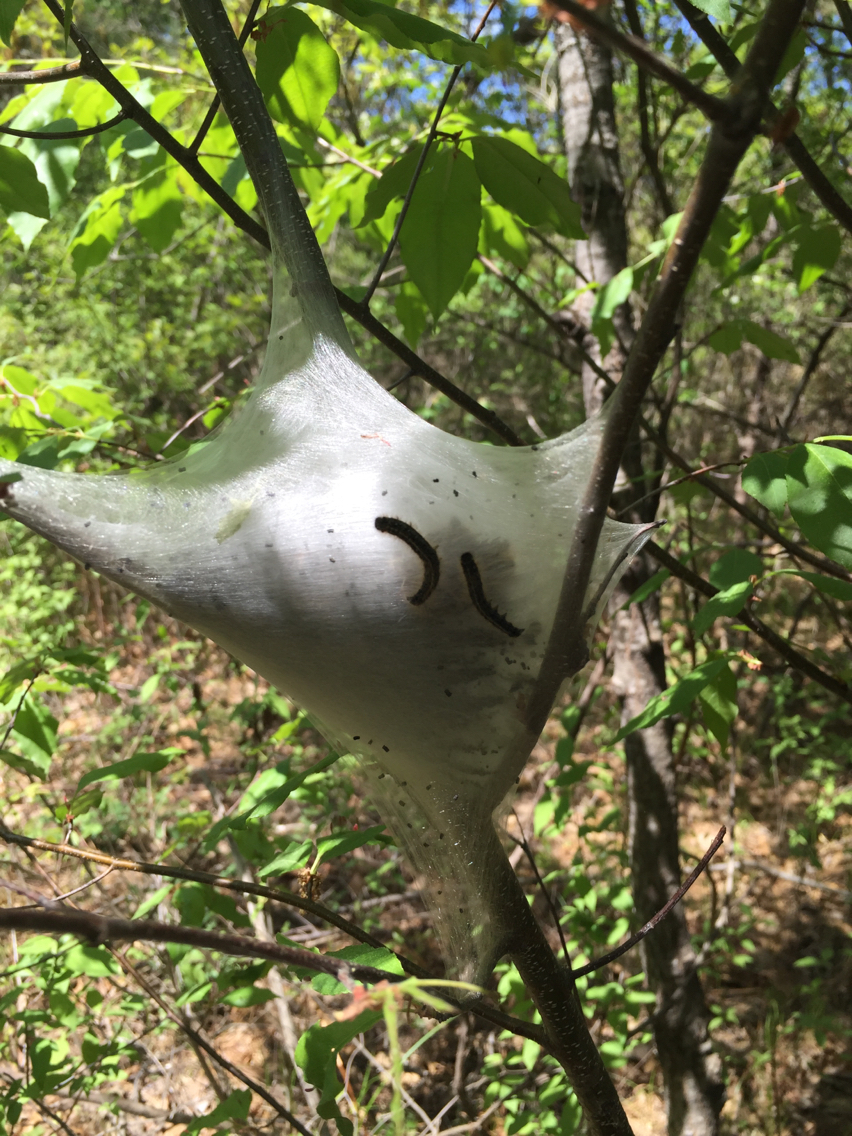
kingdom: Animalia
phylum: Arthropoda
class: Insecta
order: Lepidoptera
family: Lasiocampidae
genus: Malacosoma
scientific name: Malacosoma americana
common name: Eastern tent caterpillar moth
